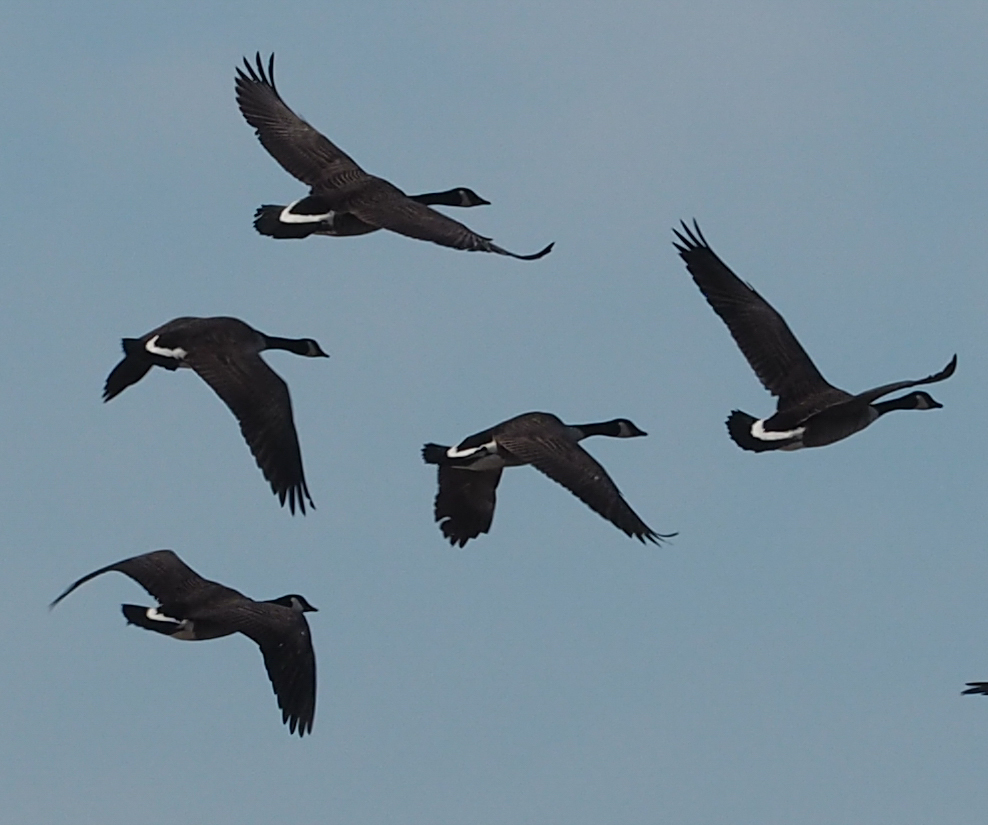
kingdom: Animalia
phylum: Chordata
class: Aves
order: Anseriformes
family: Anatidae
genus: Branta
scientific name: Branta canadensis
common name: Canada goose
